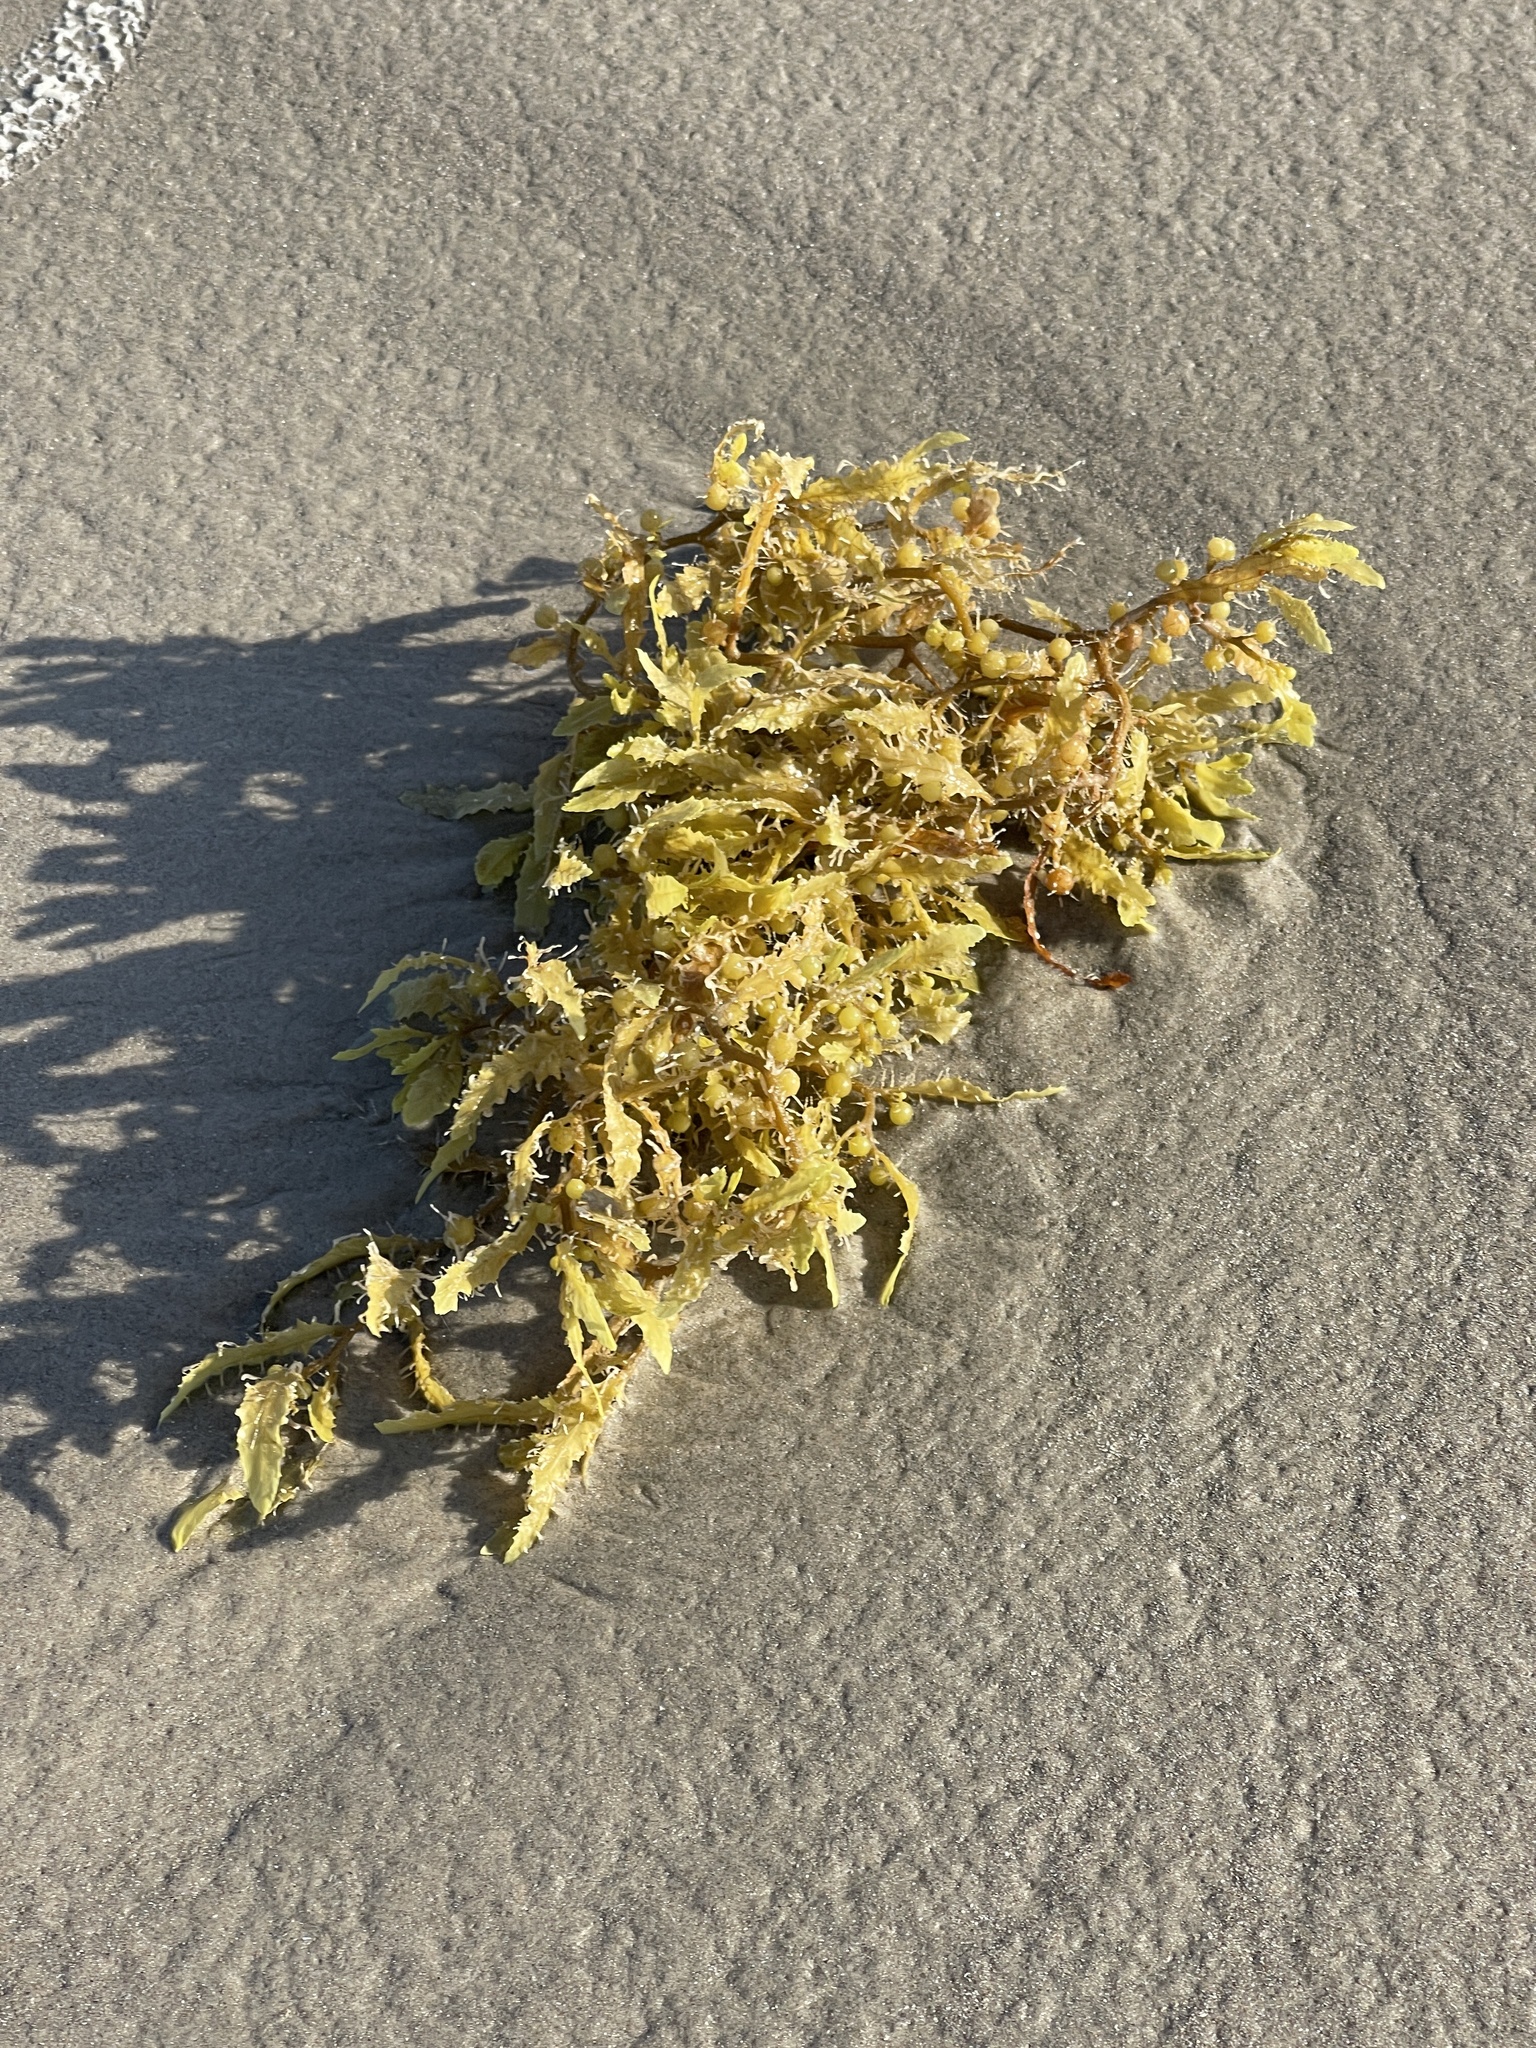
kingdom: Chromista
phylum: Ochrophyta
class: Phaeophyceae
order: Fucales
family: Sargassaceae
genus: Sargassum
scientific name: Sargassum fluitans
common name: Sargassum seaweed
